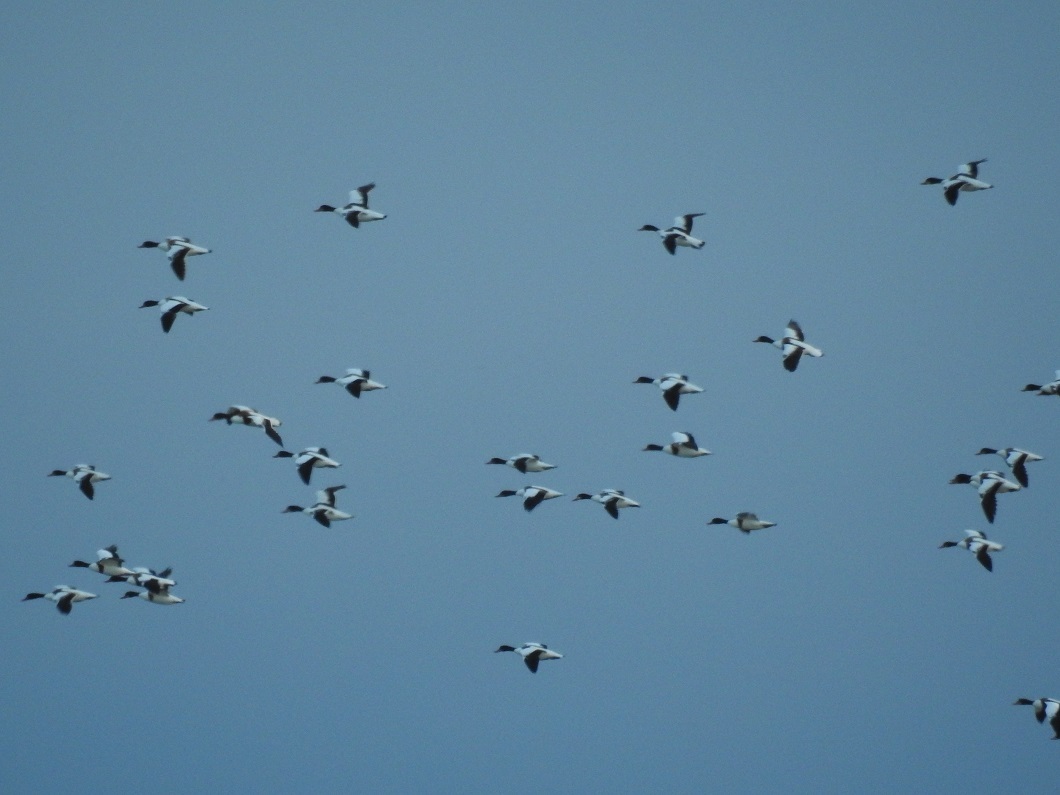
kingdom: Animalia
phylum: Chordata
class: Aves
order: Anseriformes
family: Anatidae
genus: Tadorna
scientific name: Tadorna tadorna
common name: Common shelduck
